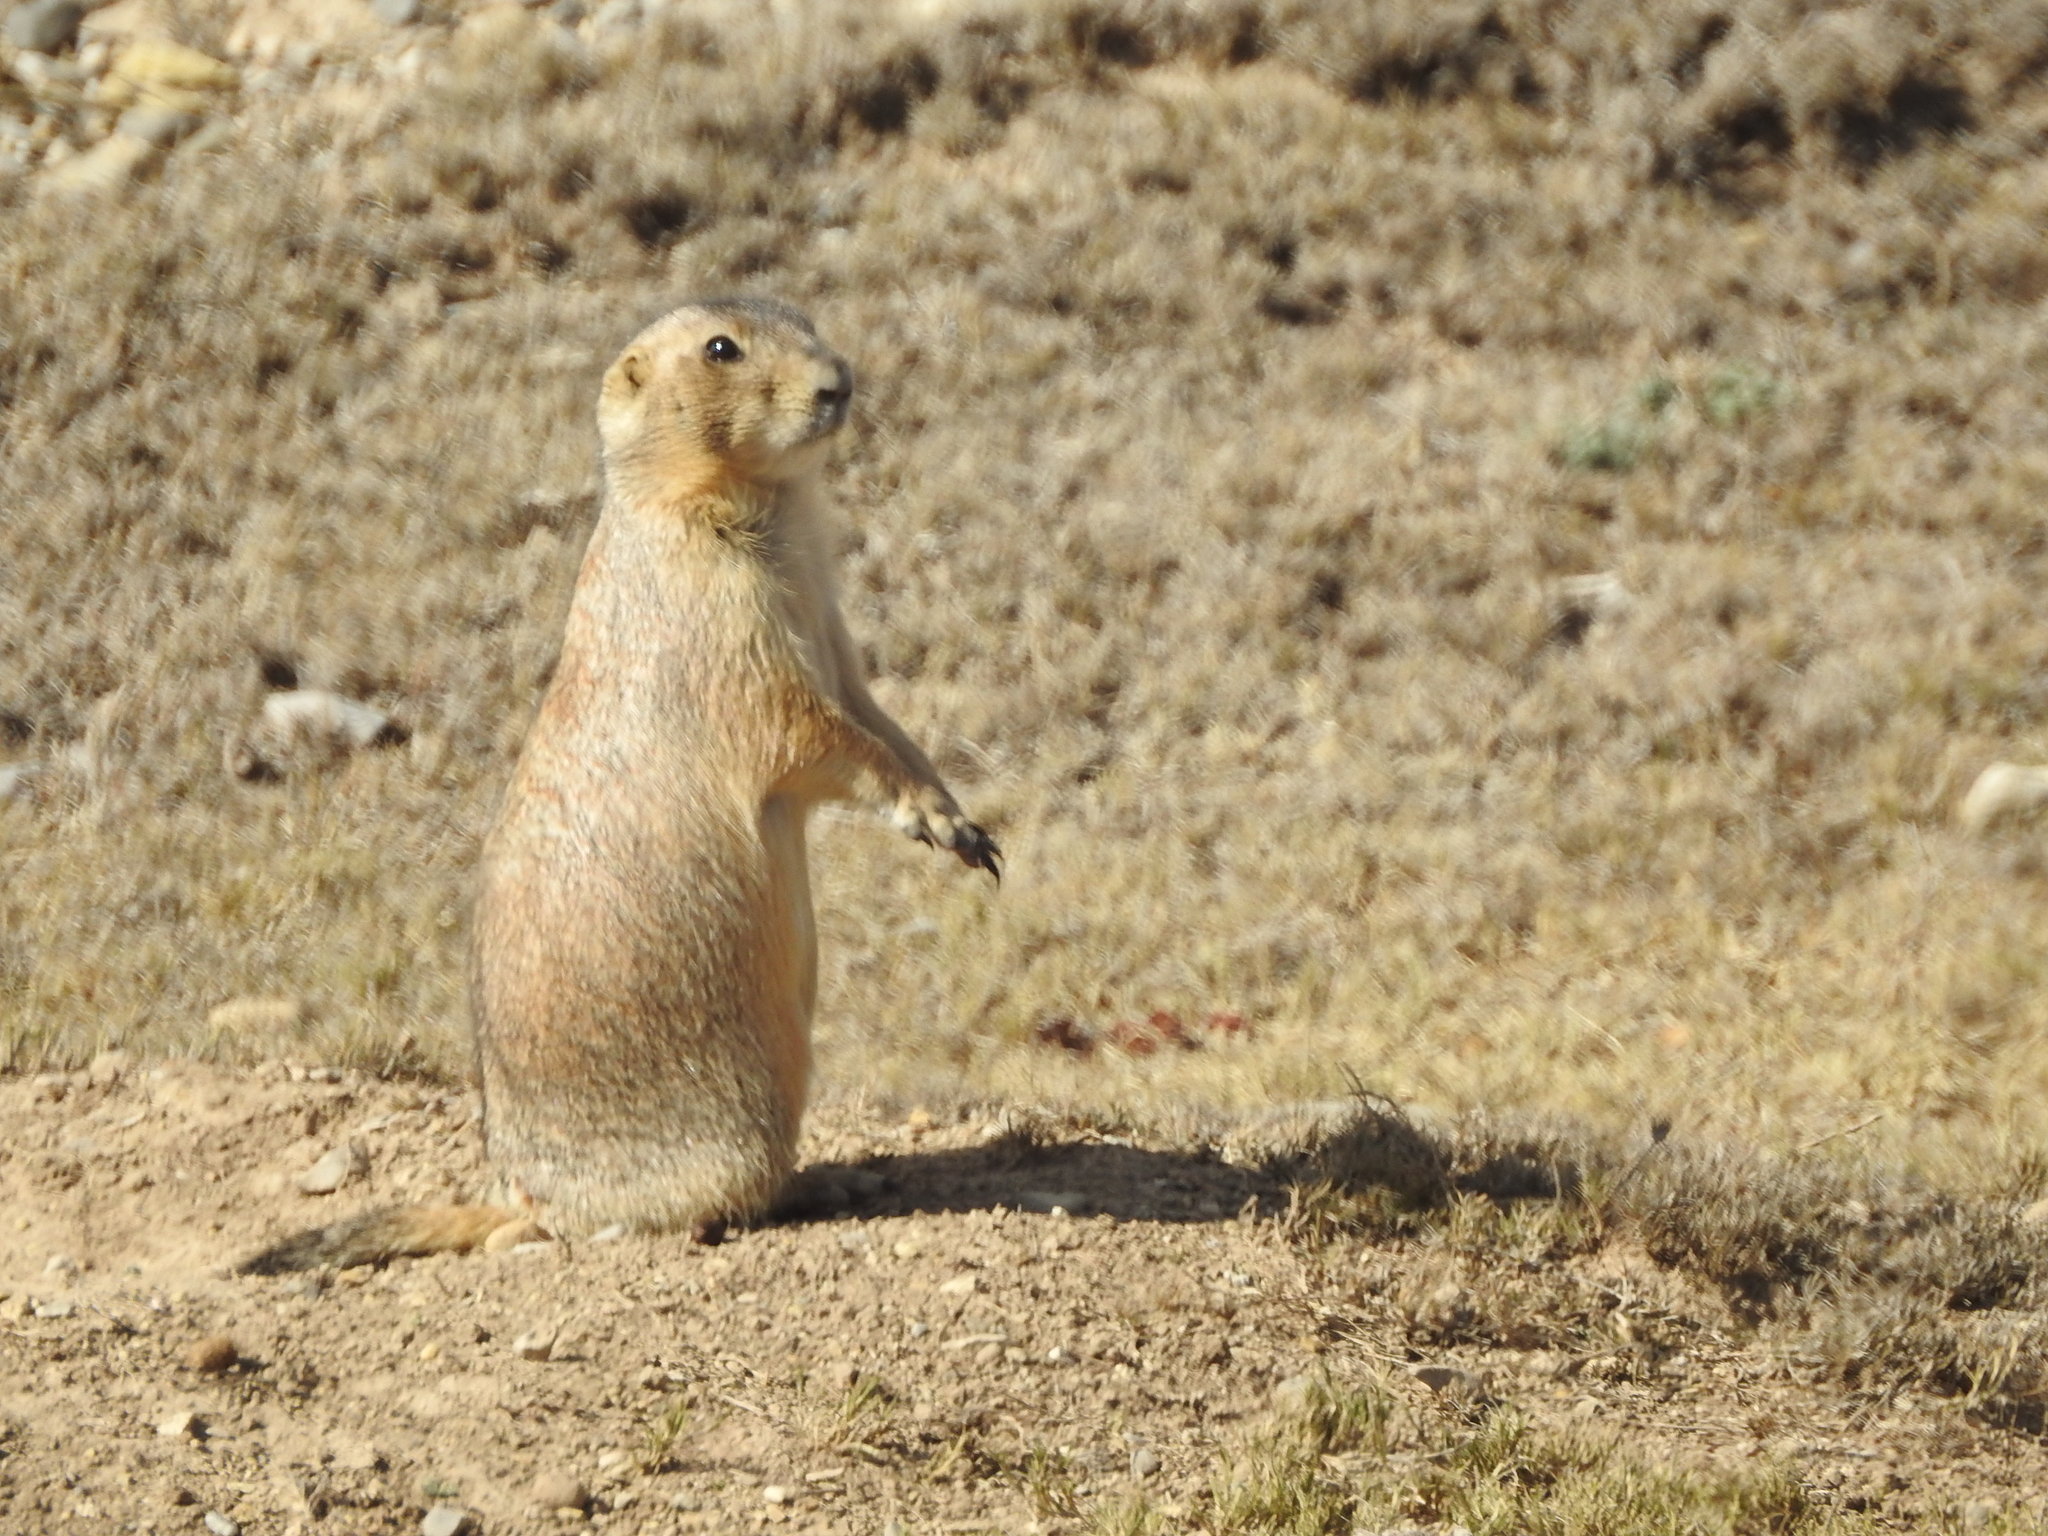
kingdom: Animalia
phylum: Chordata
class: Mammalia
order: Rodentia
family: Sciuridae
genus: Cynomys
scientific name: Cynomys mexicanus
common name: Mexican prairie dog
